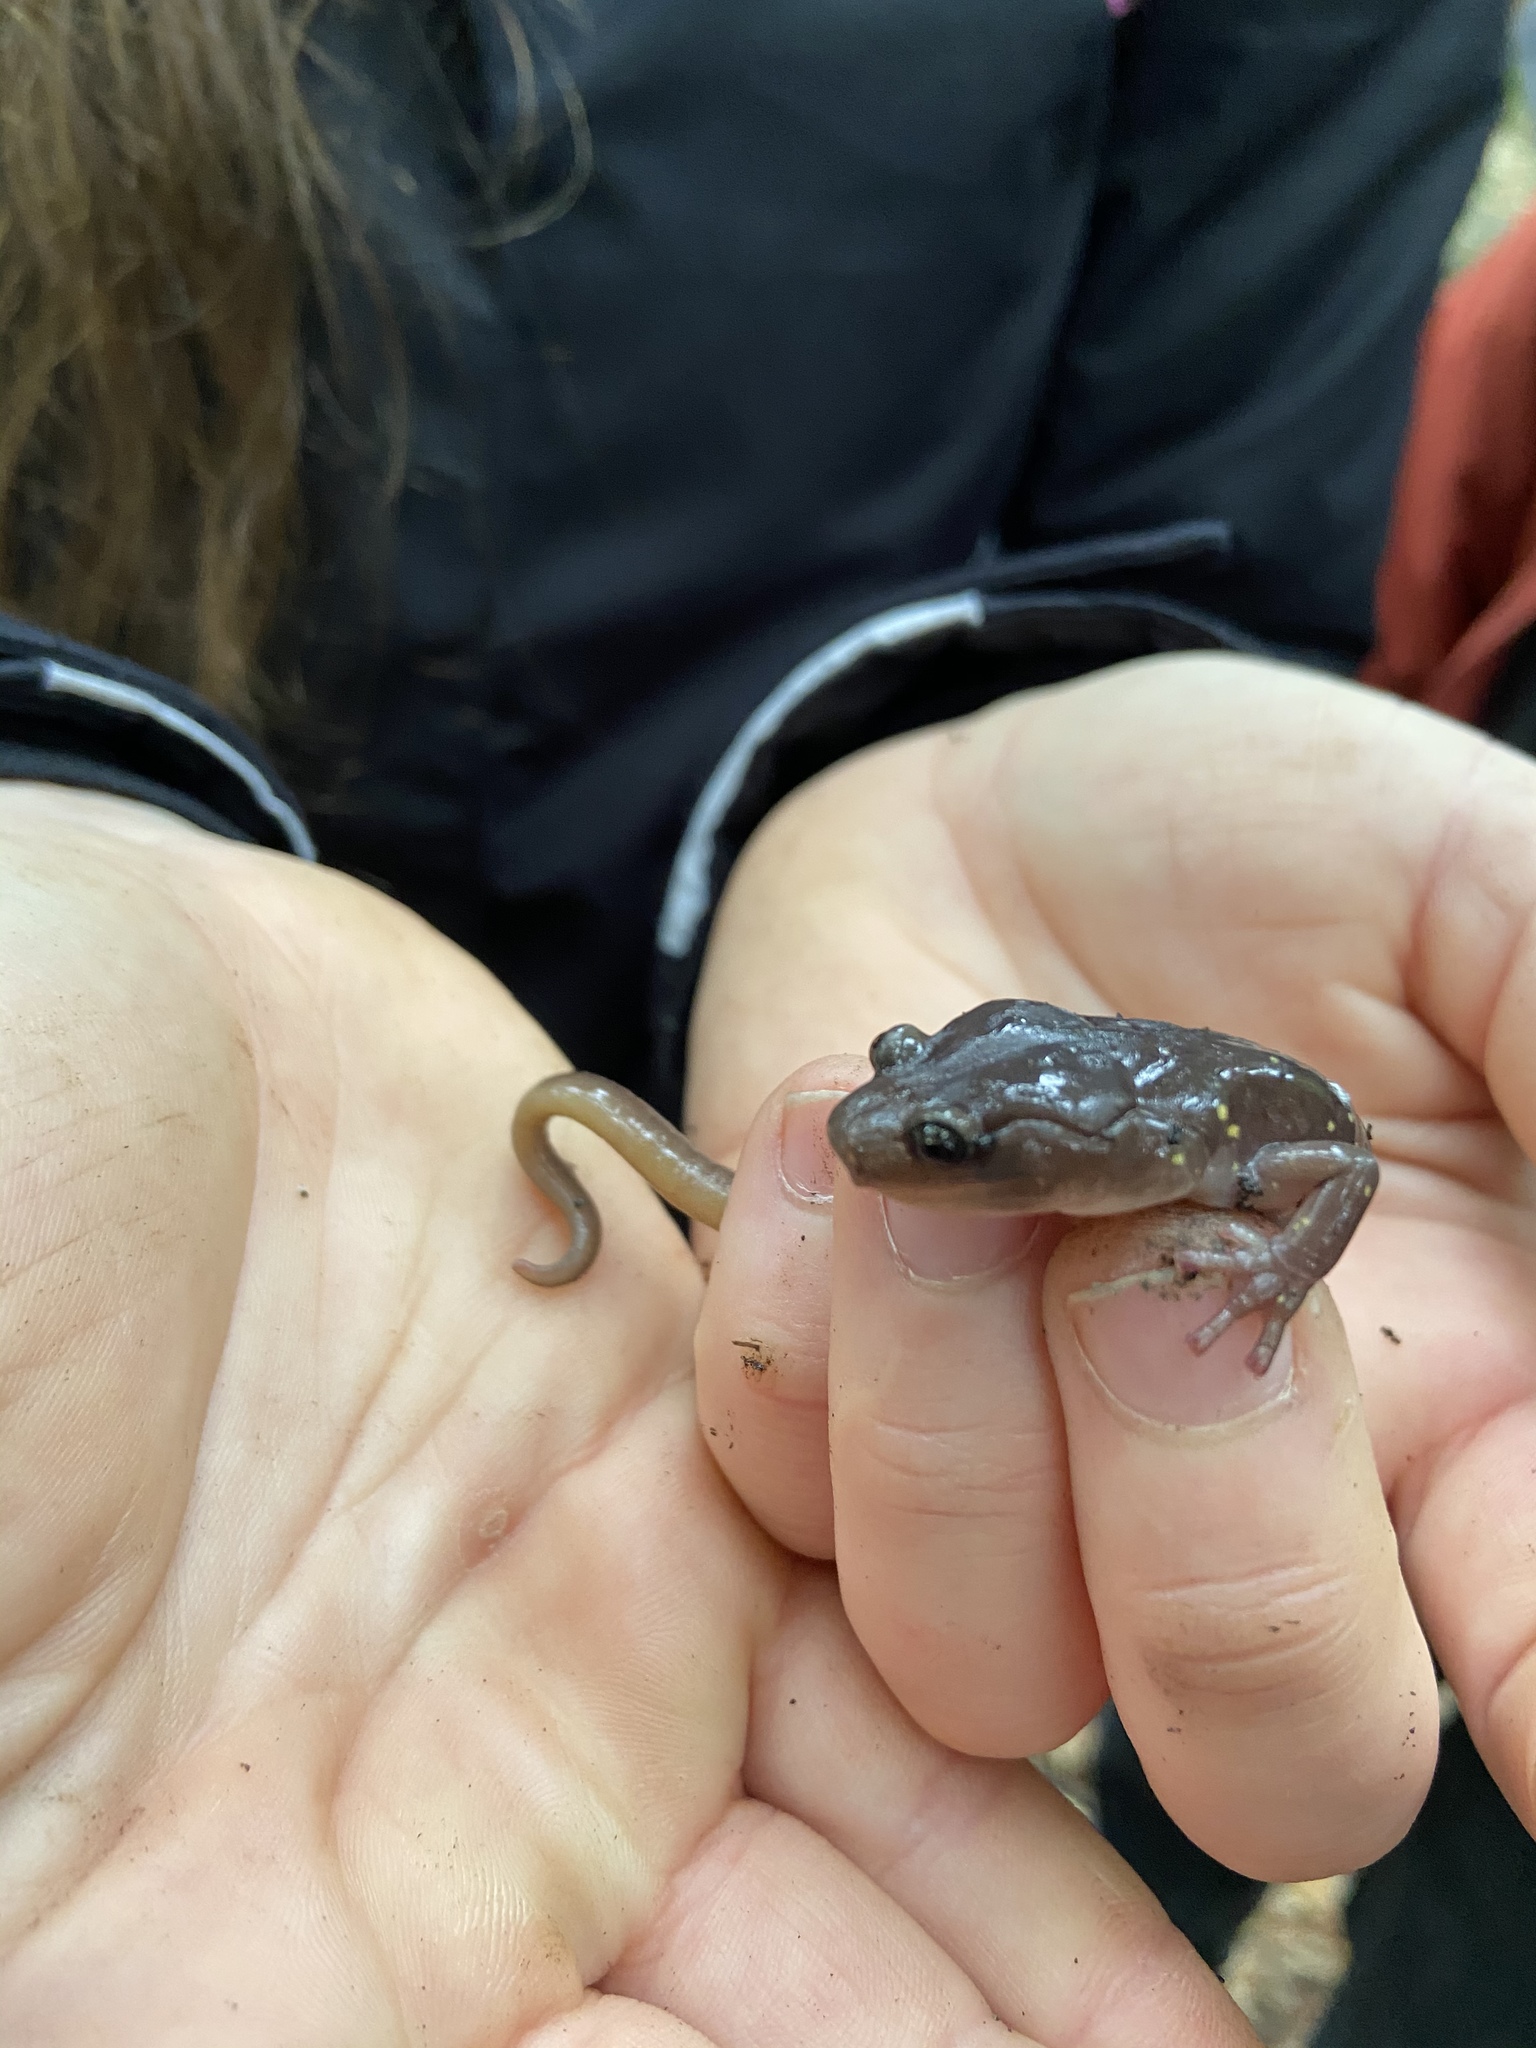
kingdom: Animalia
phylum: Chordata
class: Amphibia
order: Caudata
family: Plethodontidae
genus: Aneides
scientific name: Aneides lugubris
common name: Arboreal salamander
